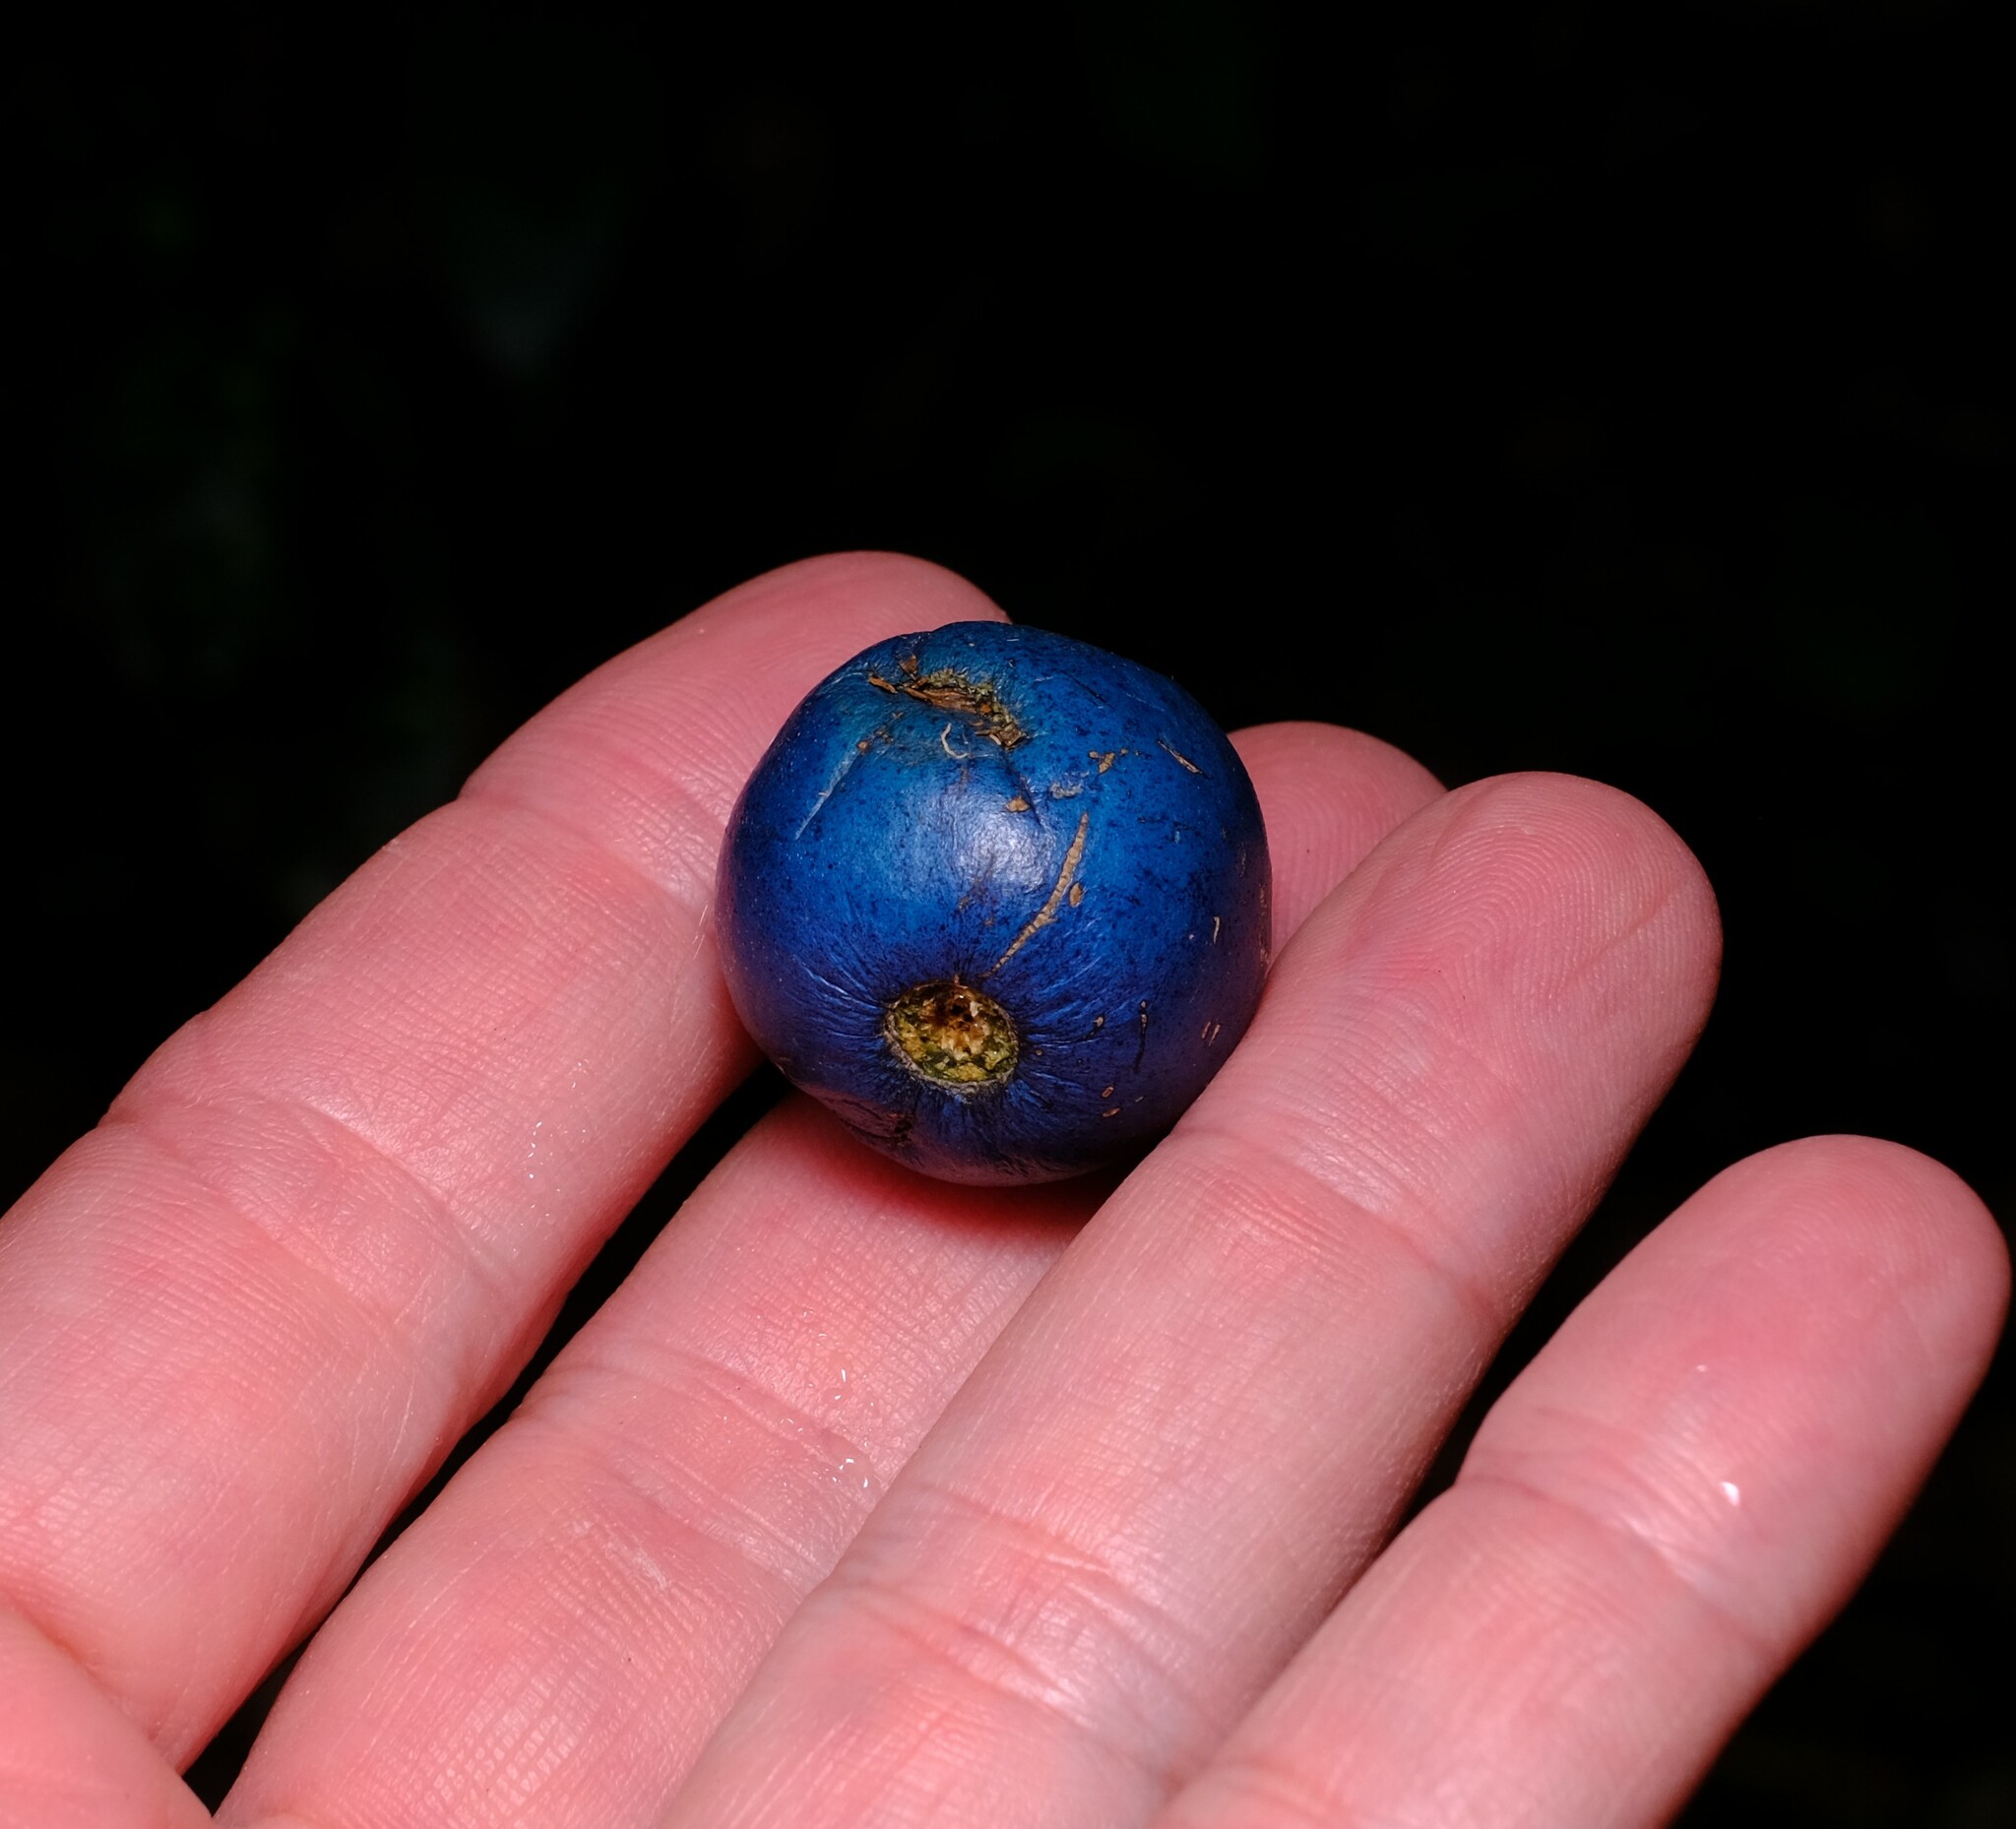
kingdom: Plantae
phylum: Tracheophyta
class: Magnoliopsida
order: Oxalidales
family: Elaeocarpaceae
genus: Elaeocarpus
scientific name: Elaeocarpus angustifolius
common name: Blue marble tree
